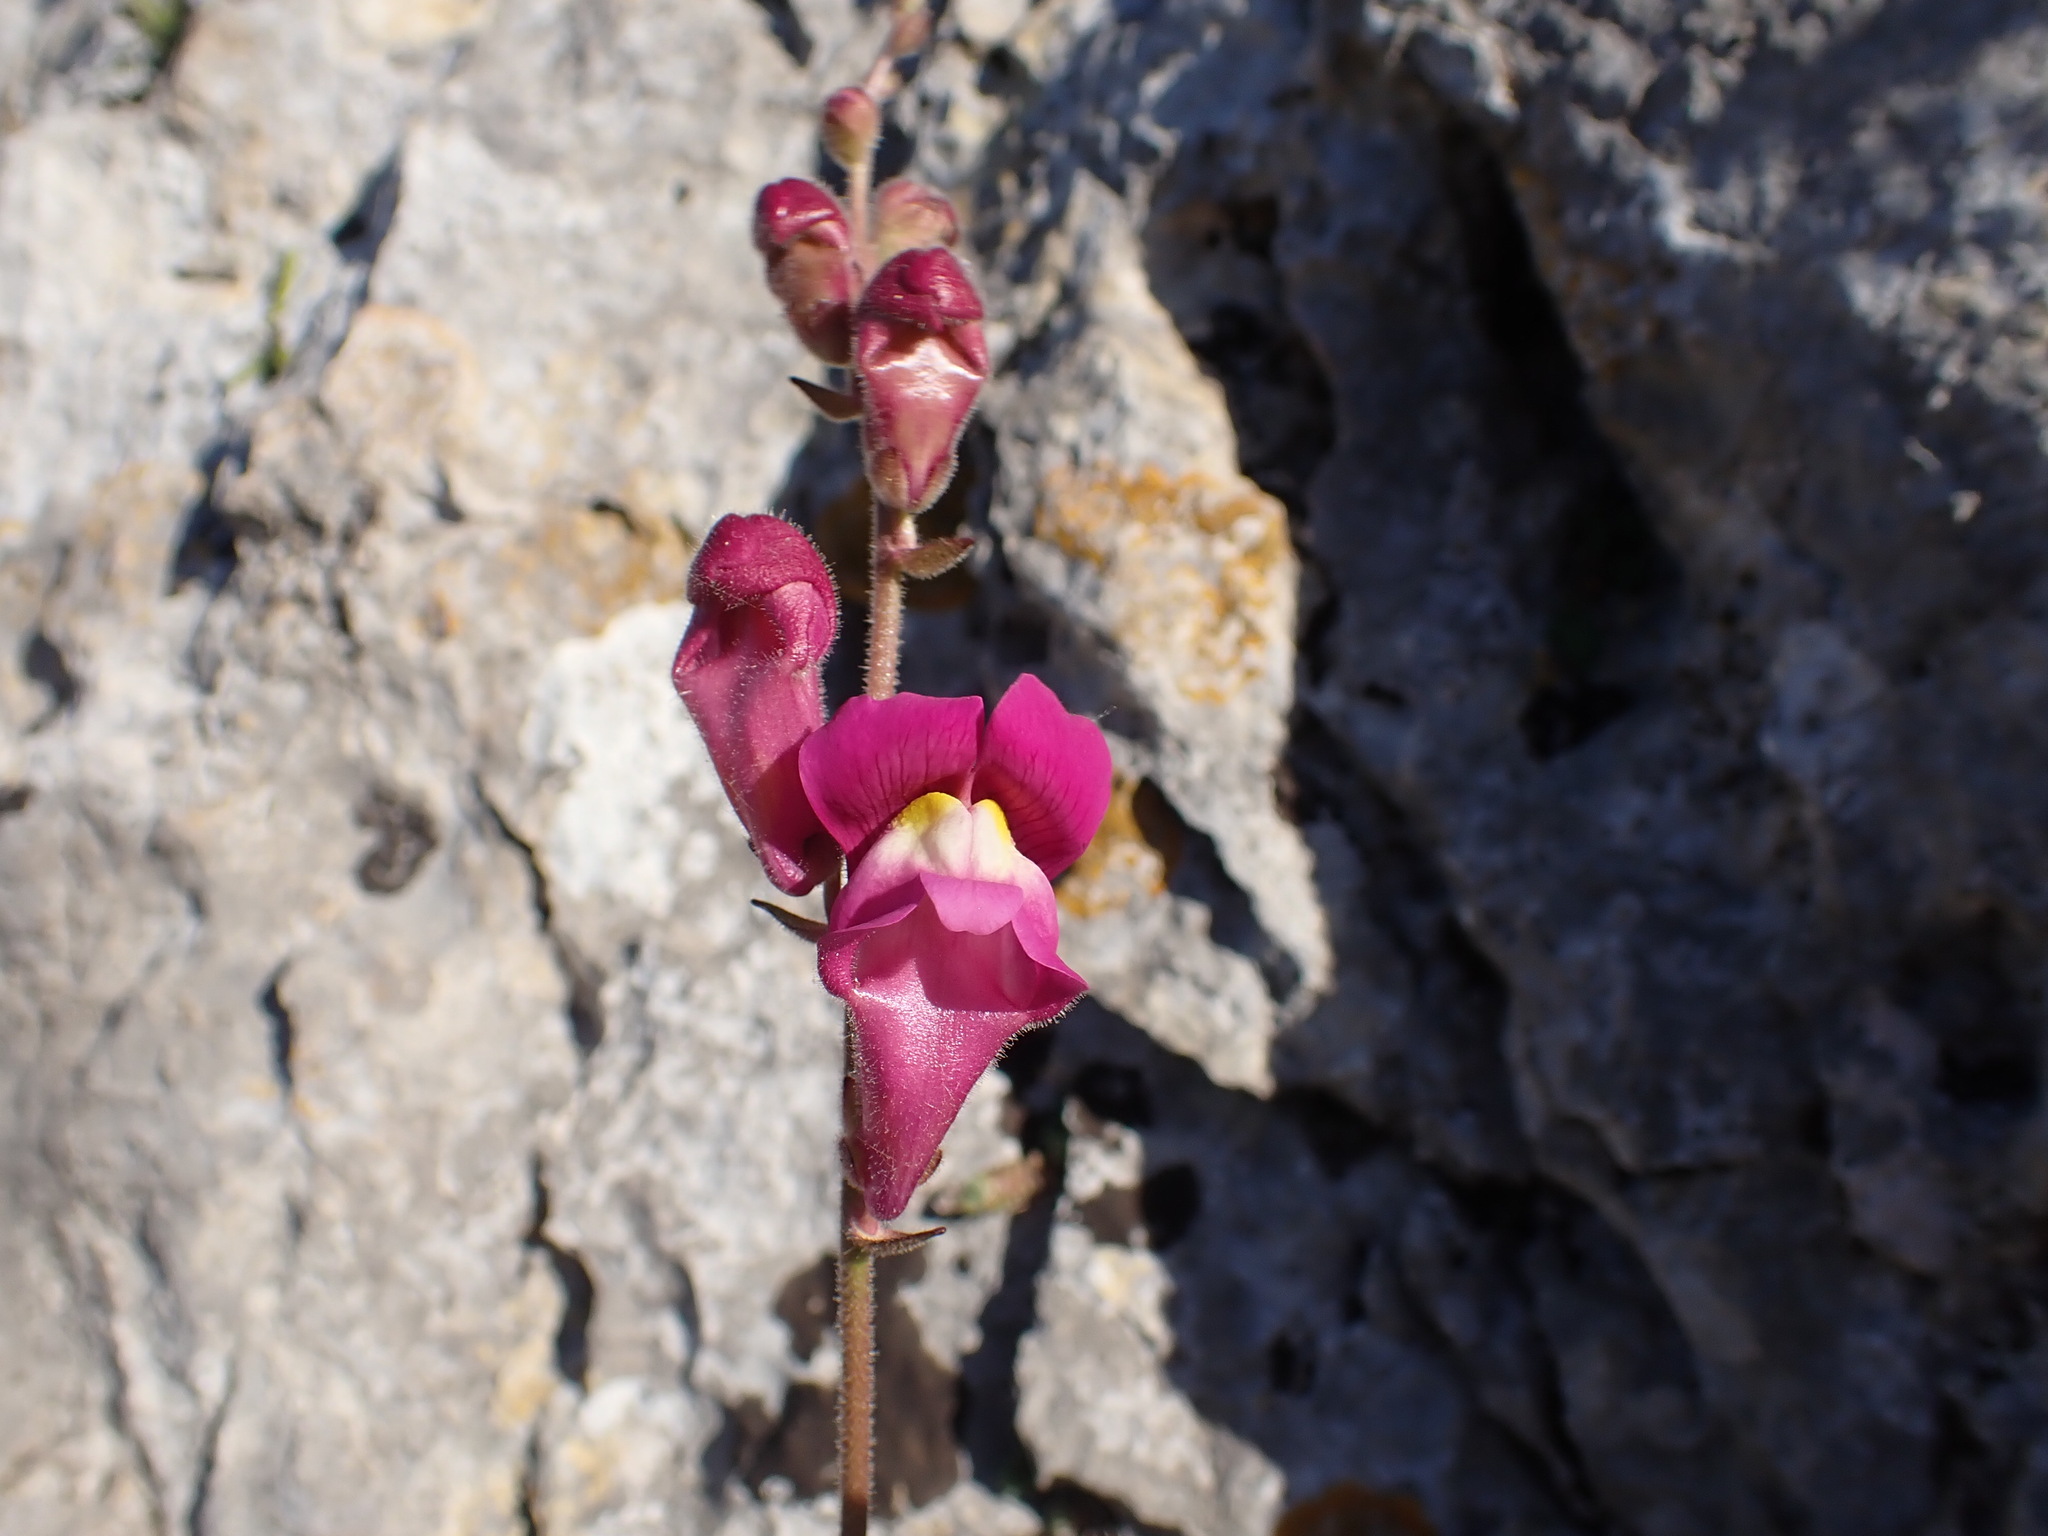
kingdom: Plantae
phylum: Tracheophyta
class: Magnoliopsida
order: Lamiales
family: Plantaginaceae
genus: Antirrhinum
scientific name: Antirrhinum majus
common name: Snapdragon
